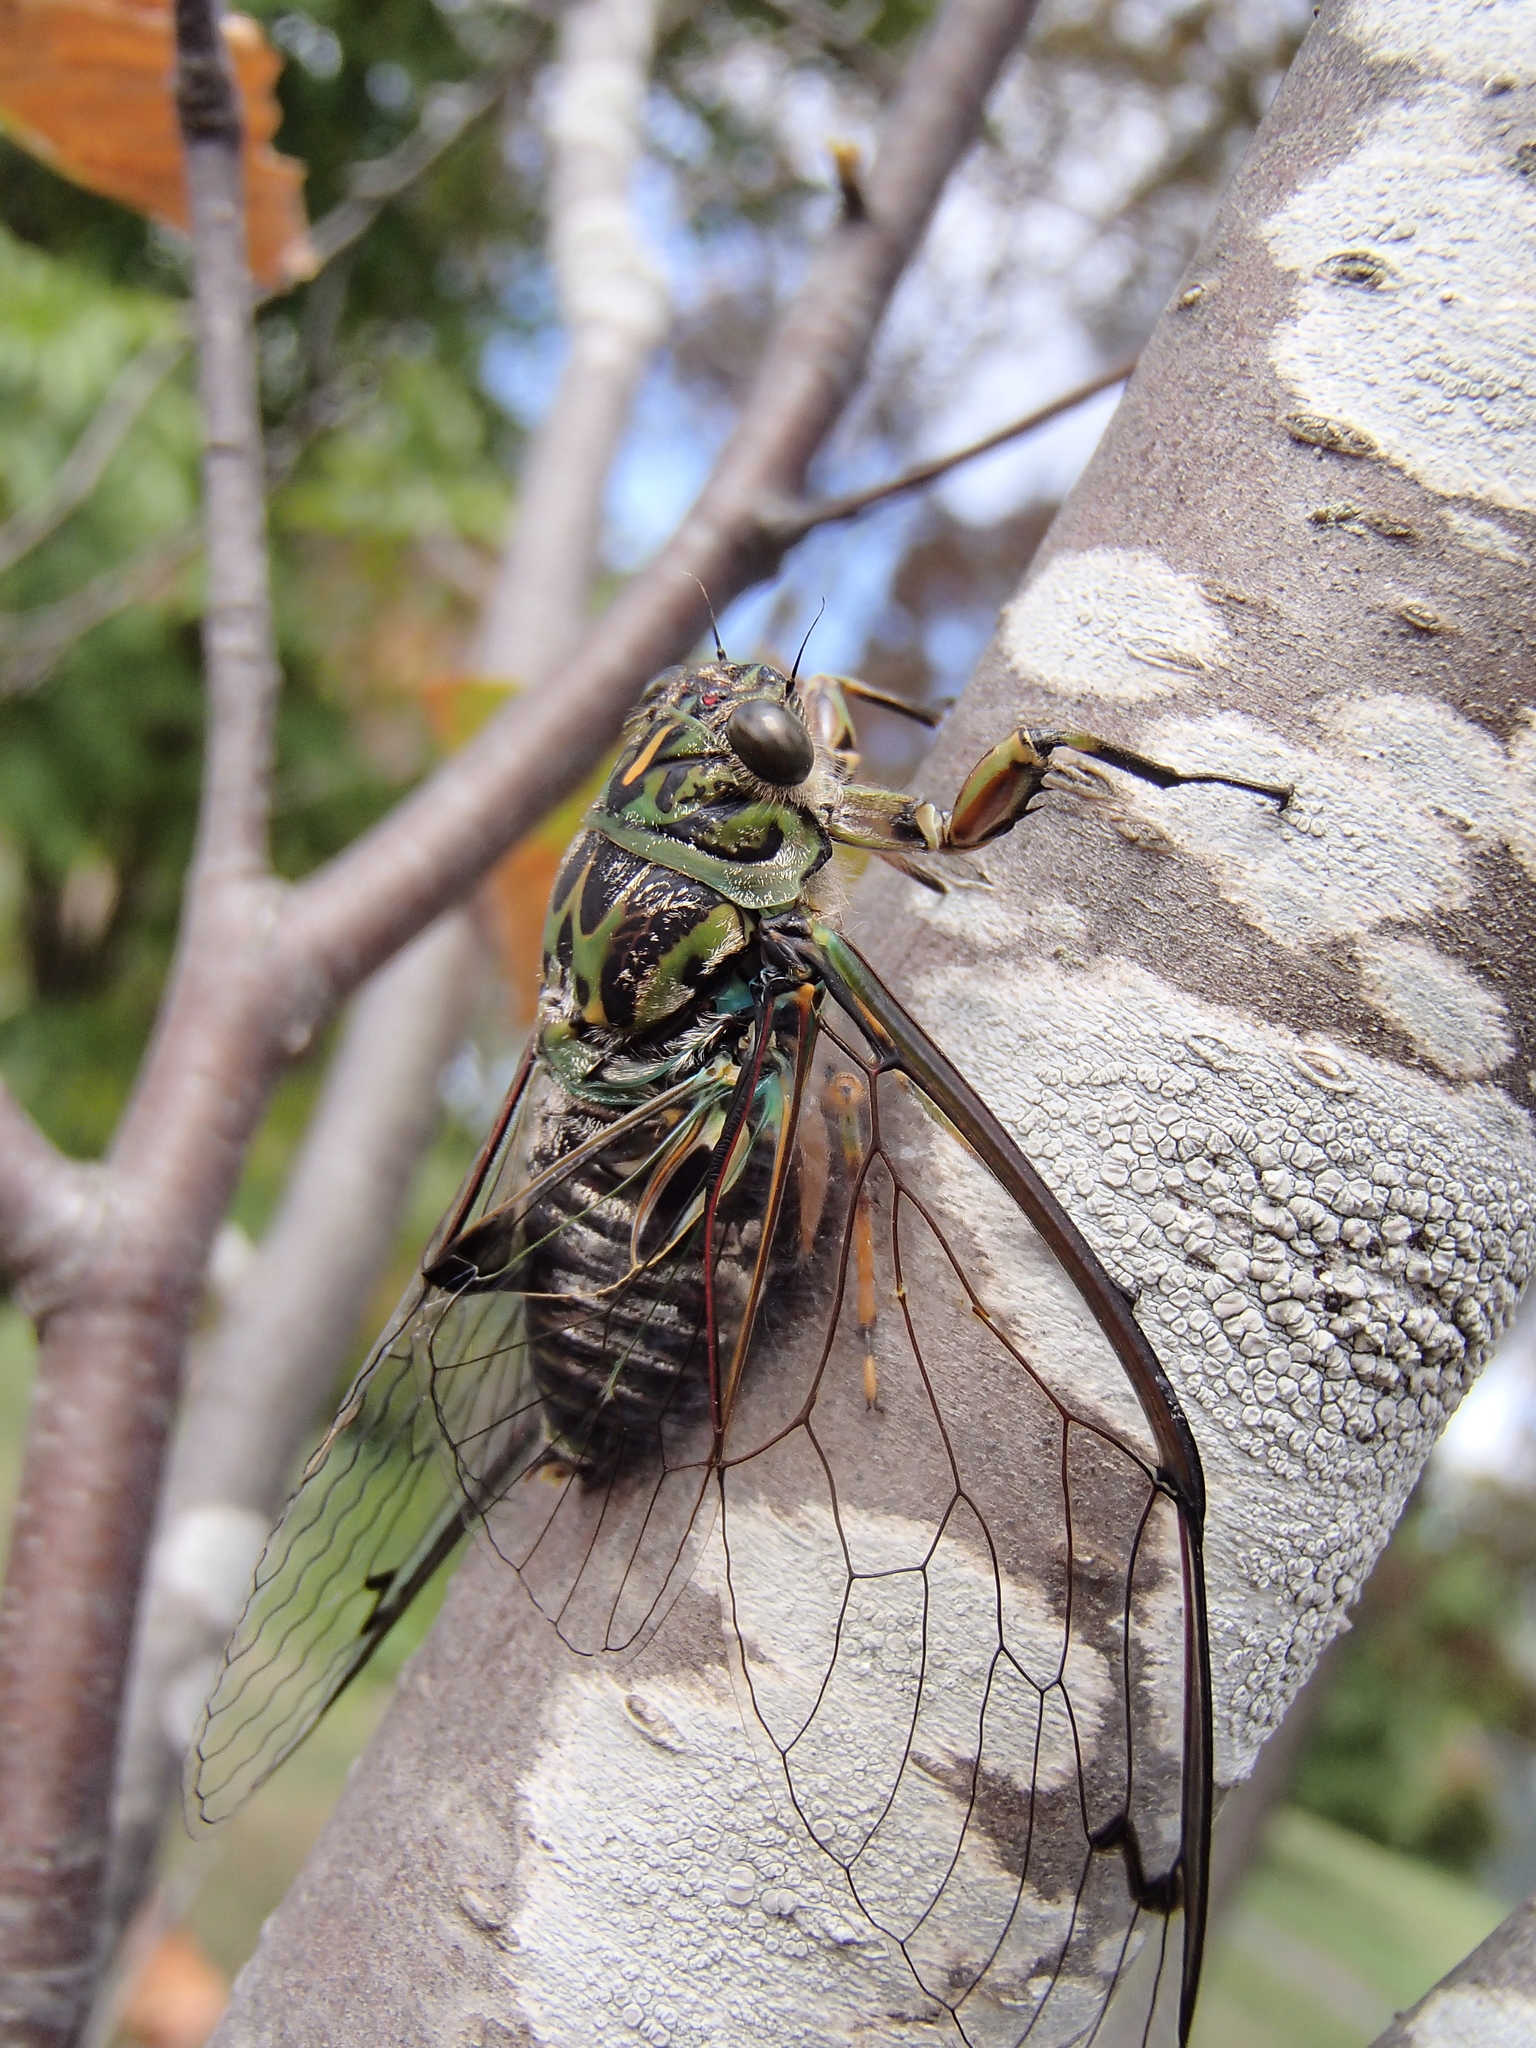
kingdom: Animalia
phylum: Arthropoda
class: Insecta
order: Hemiptera
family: Cicadidae
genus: Amphipsalta
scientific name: Amphipsalta zelandica
